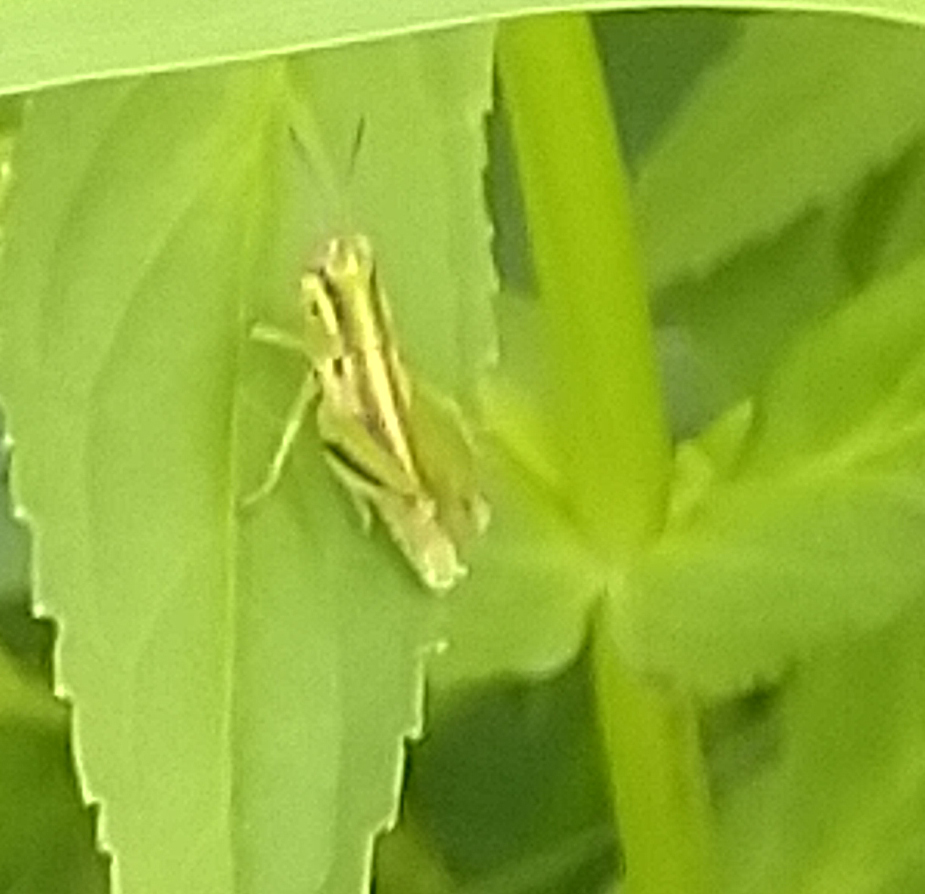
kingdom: Animalia
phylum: Arthropoda
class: Insecta
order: Orthoptera
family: Acrididae
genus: Melanoplus
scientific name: Melanoplus bivittatus
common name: Two-striped grasshopper
